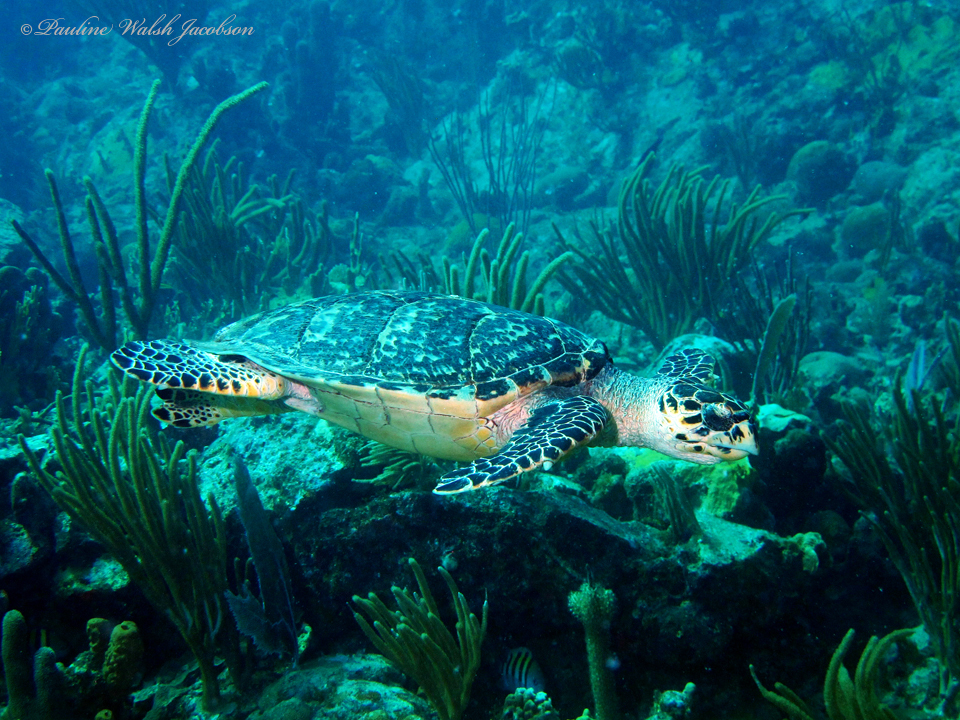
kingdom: Animalia
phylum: Chordata
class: Testudines
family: Cheloniidae
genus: Eretmochelys
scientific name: Eretmochelys imbricata
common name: Hawksbill turtle
